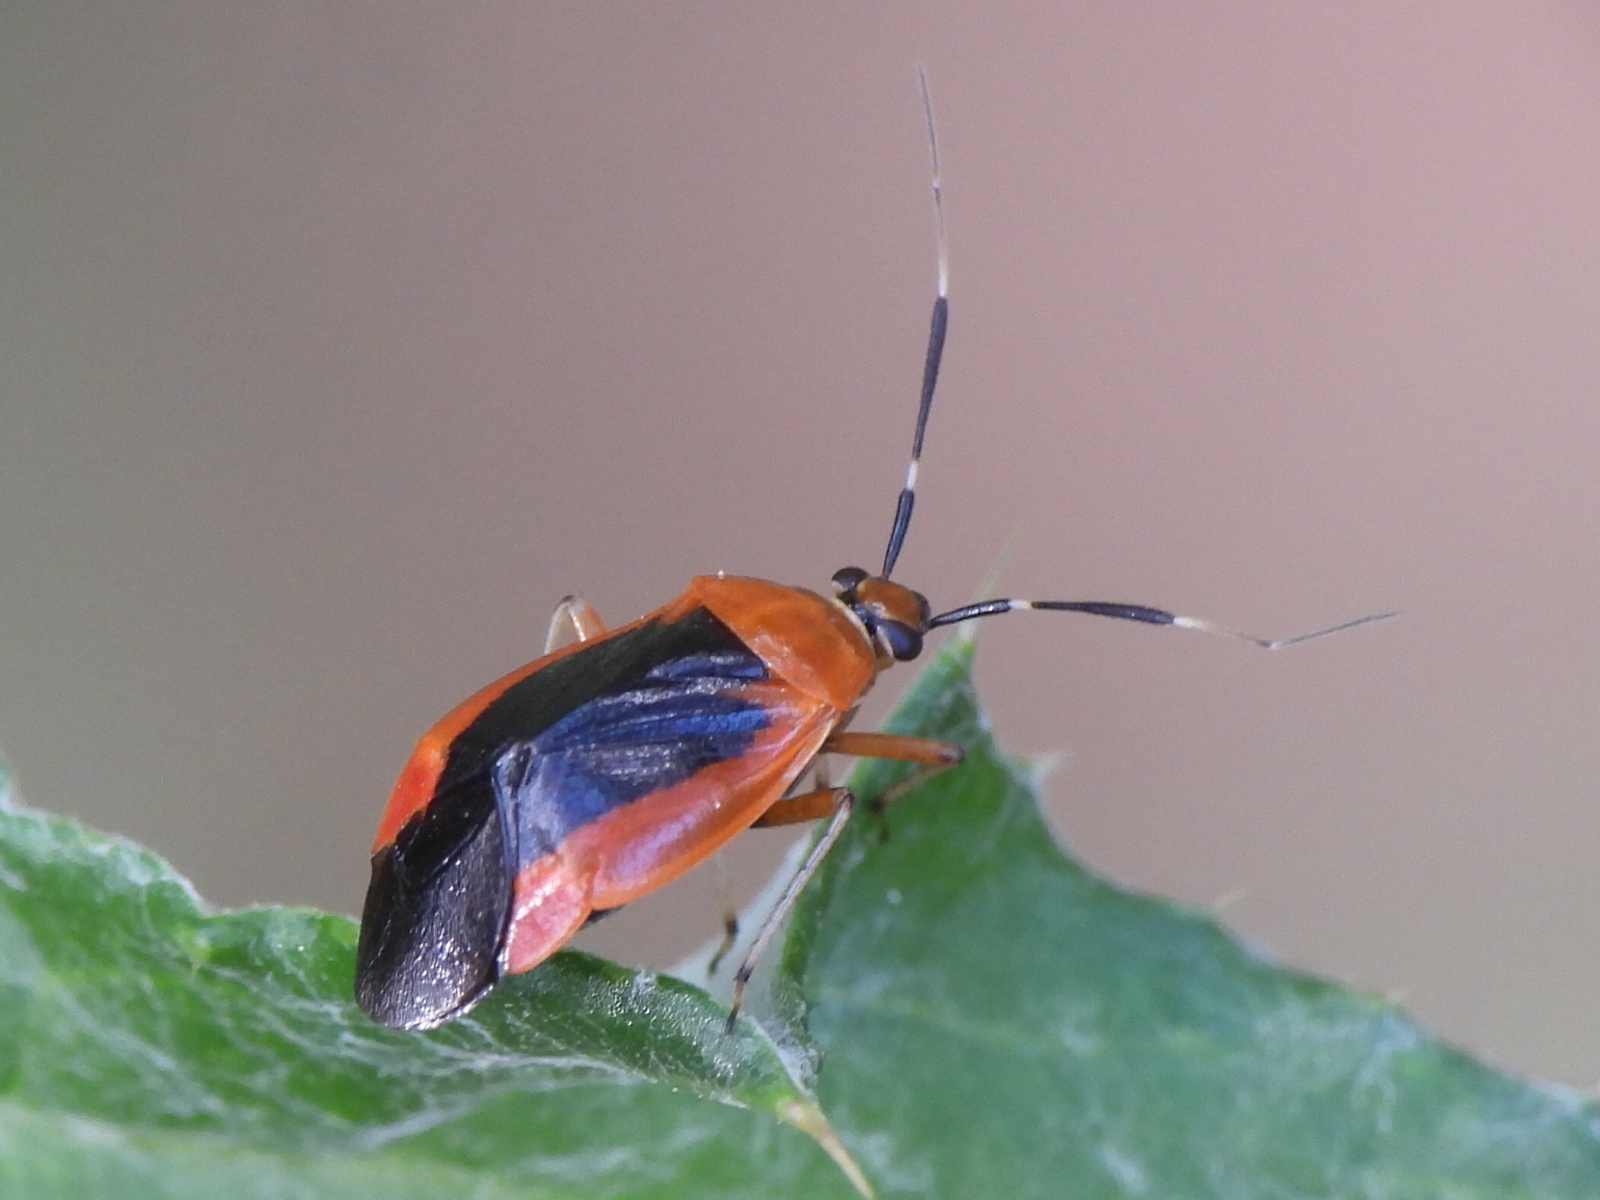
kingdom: Animalia
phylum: Arthropoda
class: Insecta
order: Hemiptera
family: Miridae
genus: Metriorrhynchomiris
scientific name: Metriorrhynchomiris dislocatus
